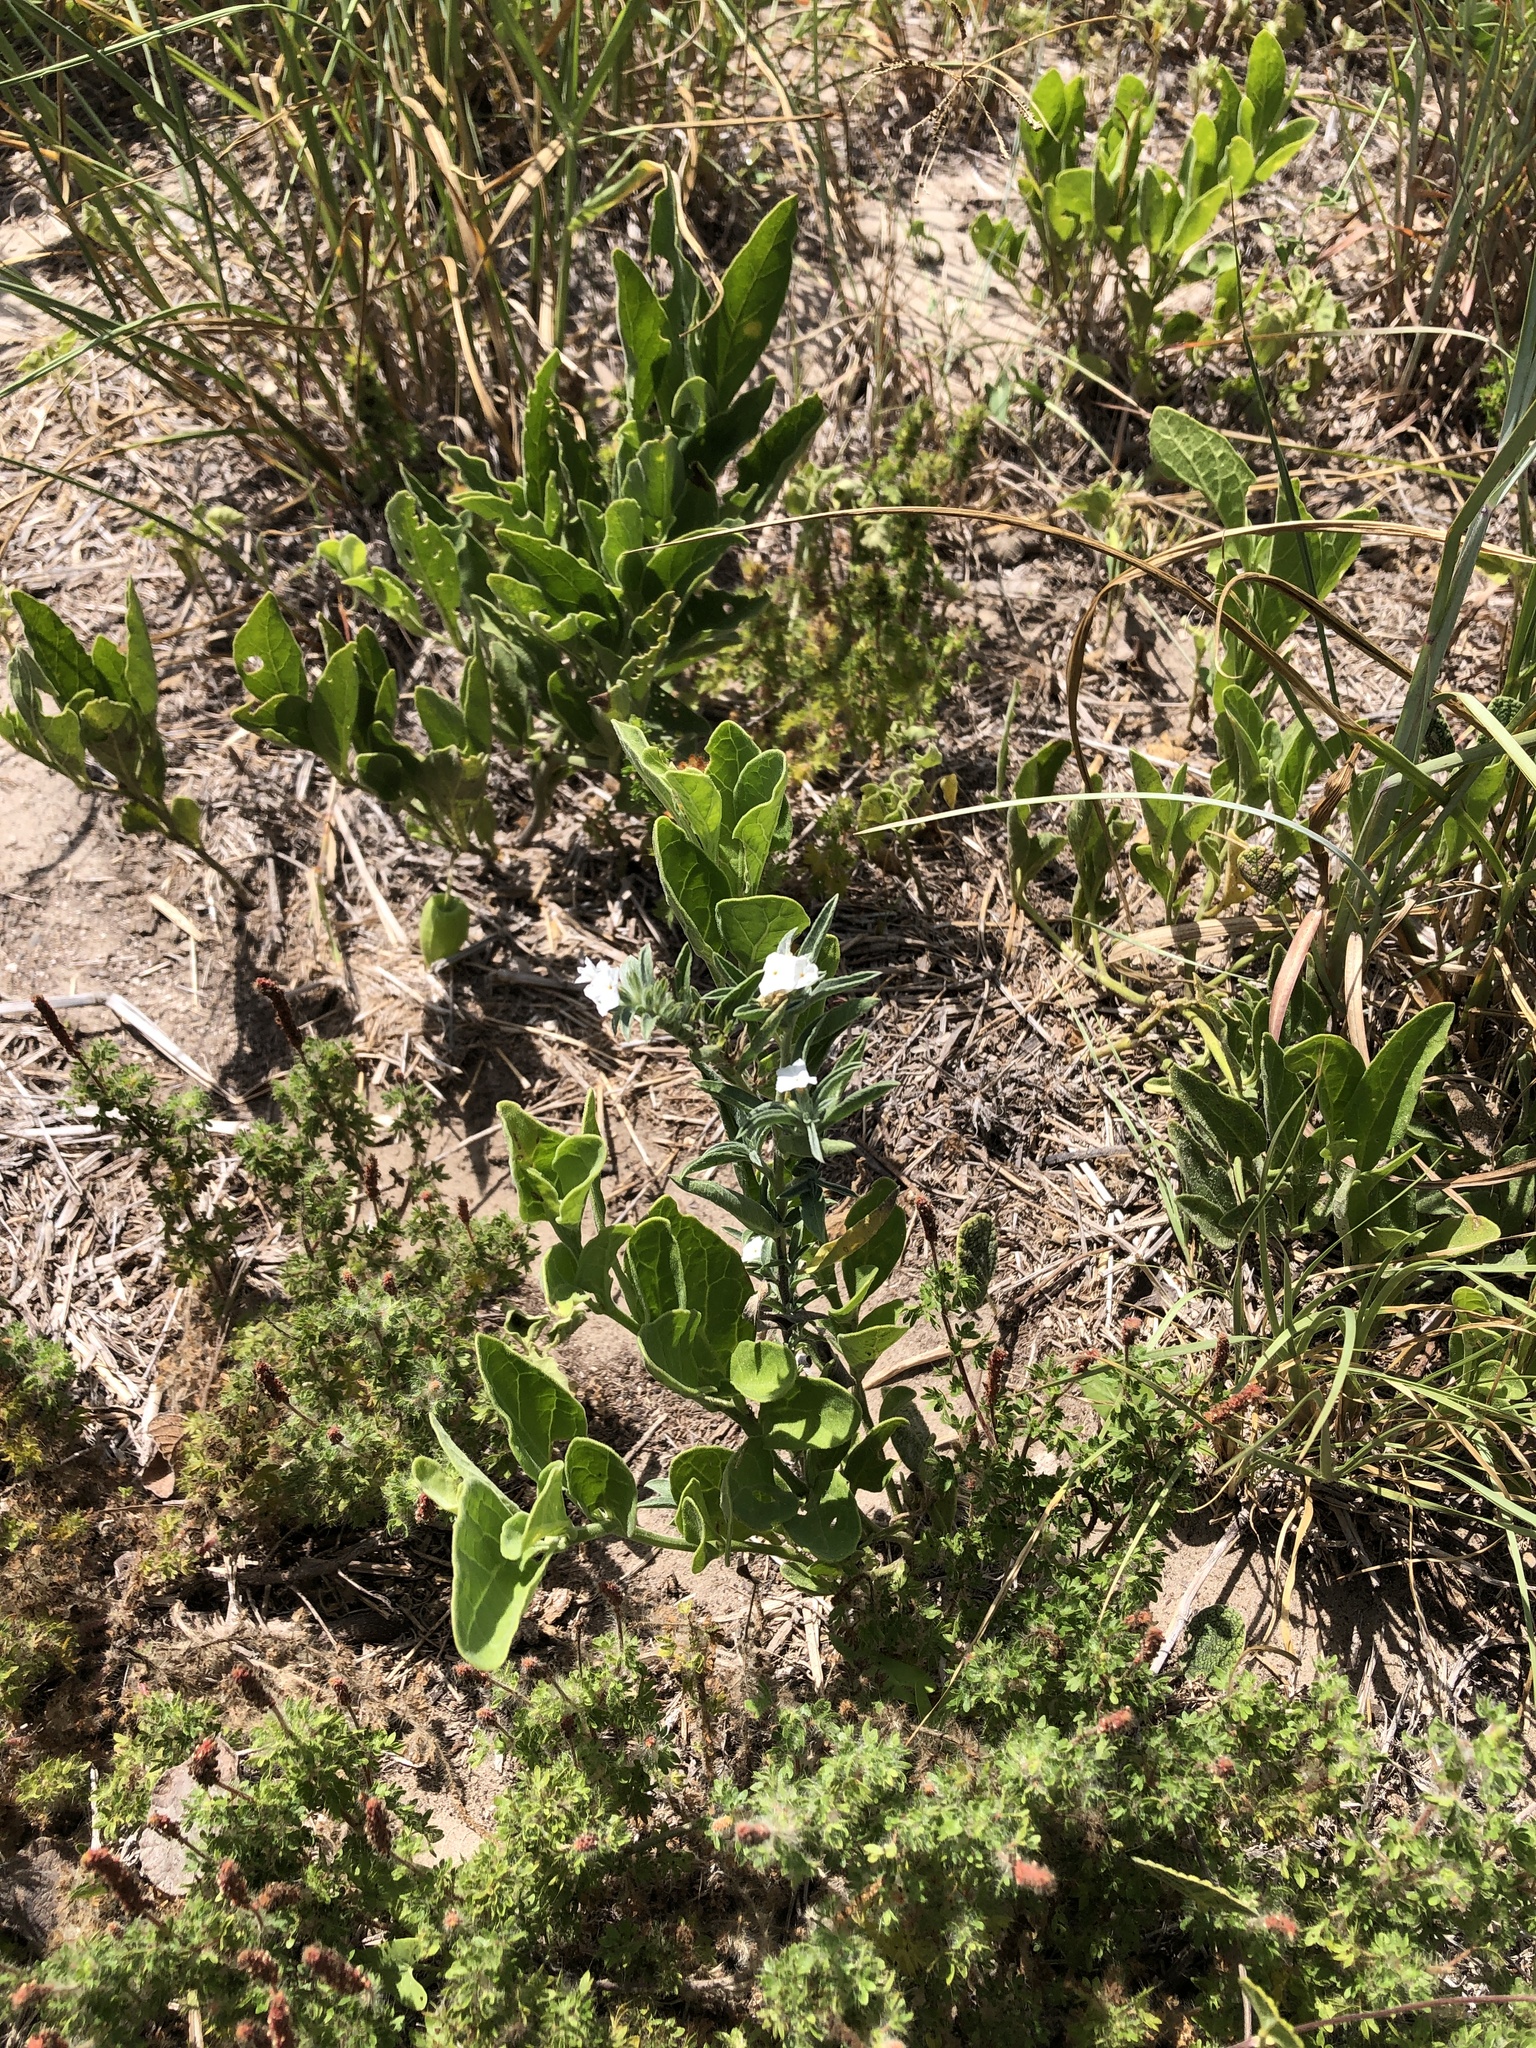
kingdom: Plantae
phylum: Tracheophyta
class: Magnoliopsida
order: Boraginales
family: Heliotropiaceae
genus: Euploca
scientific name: Euploca racemosa
